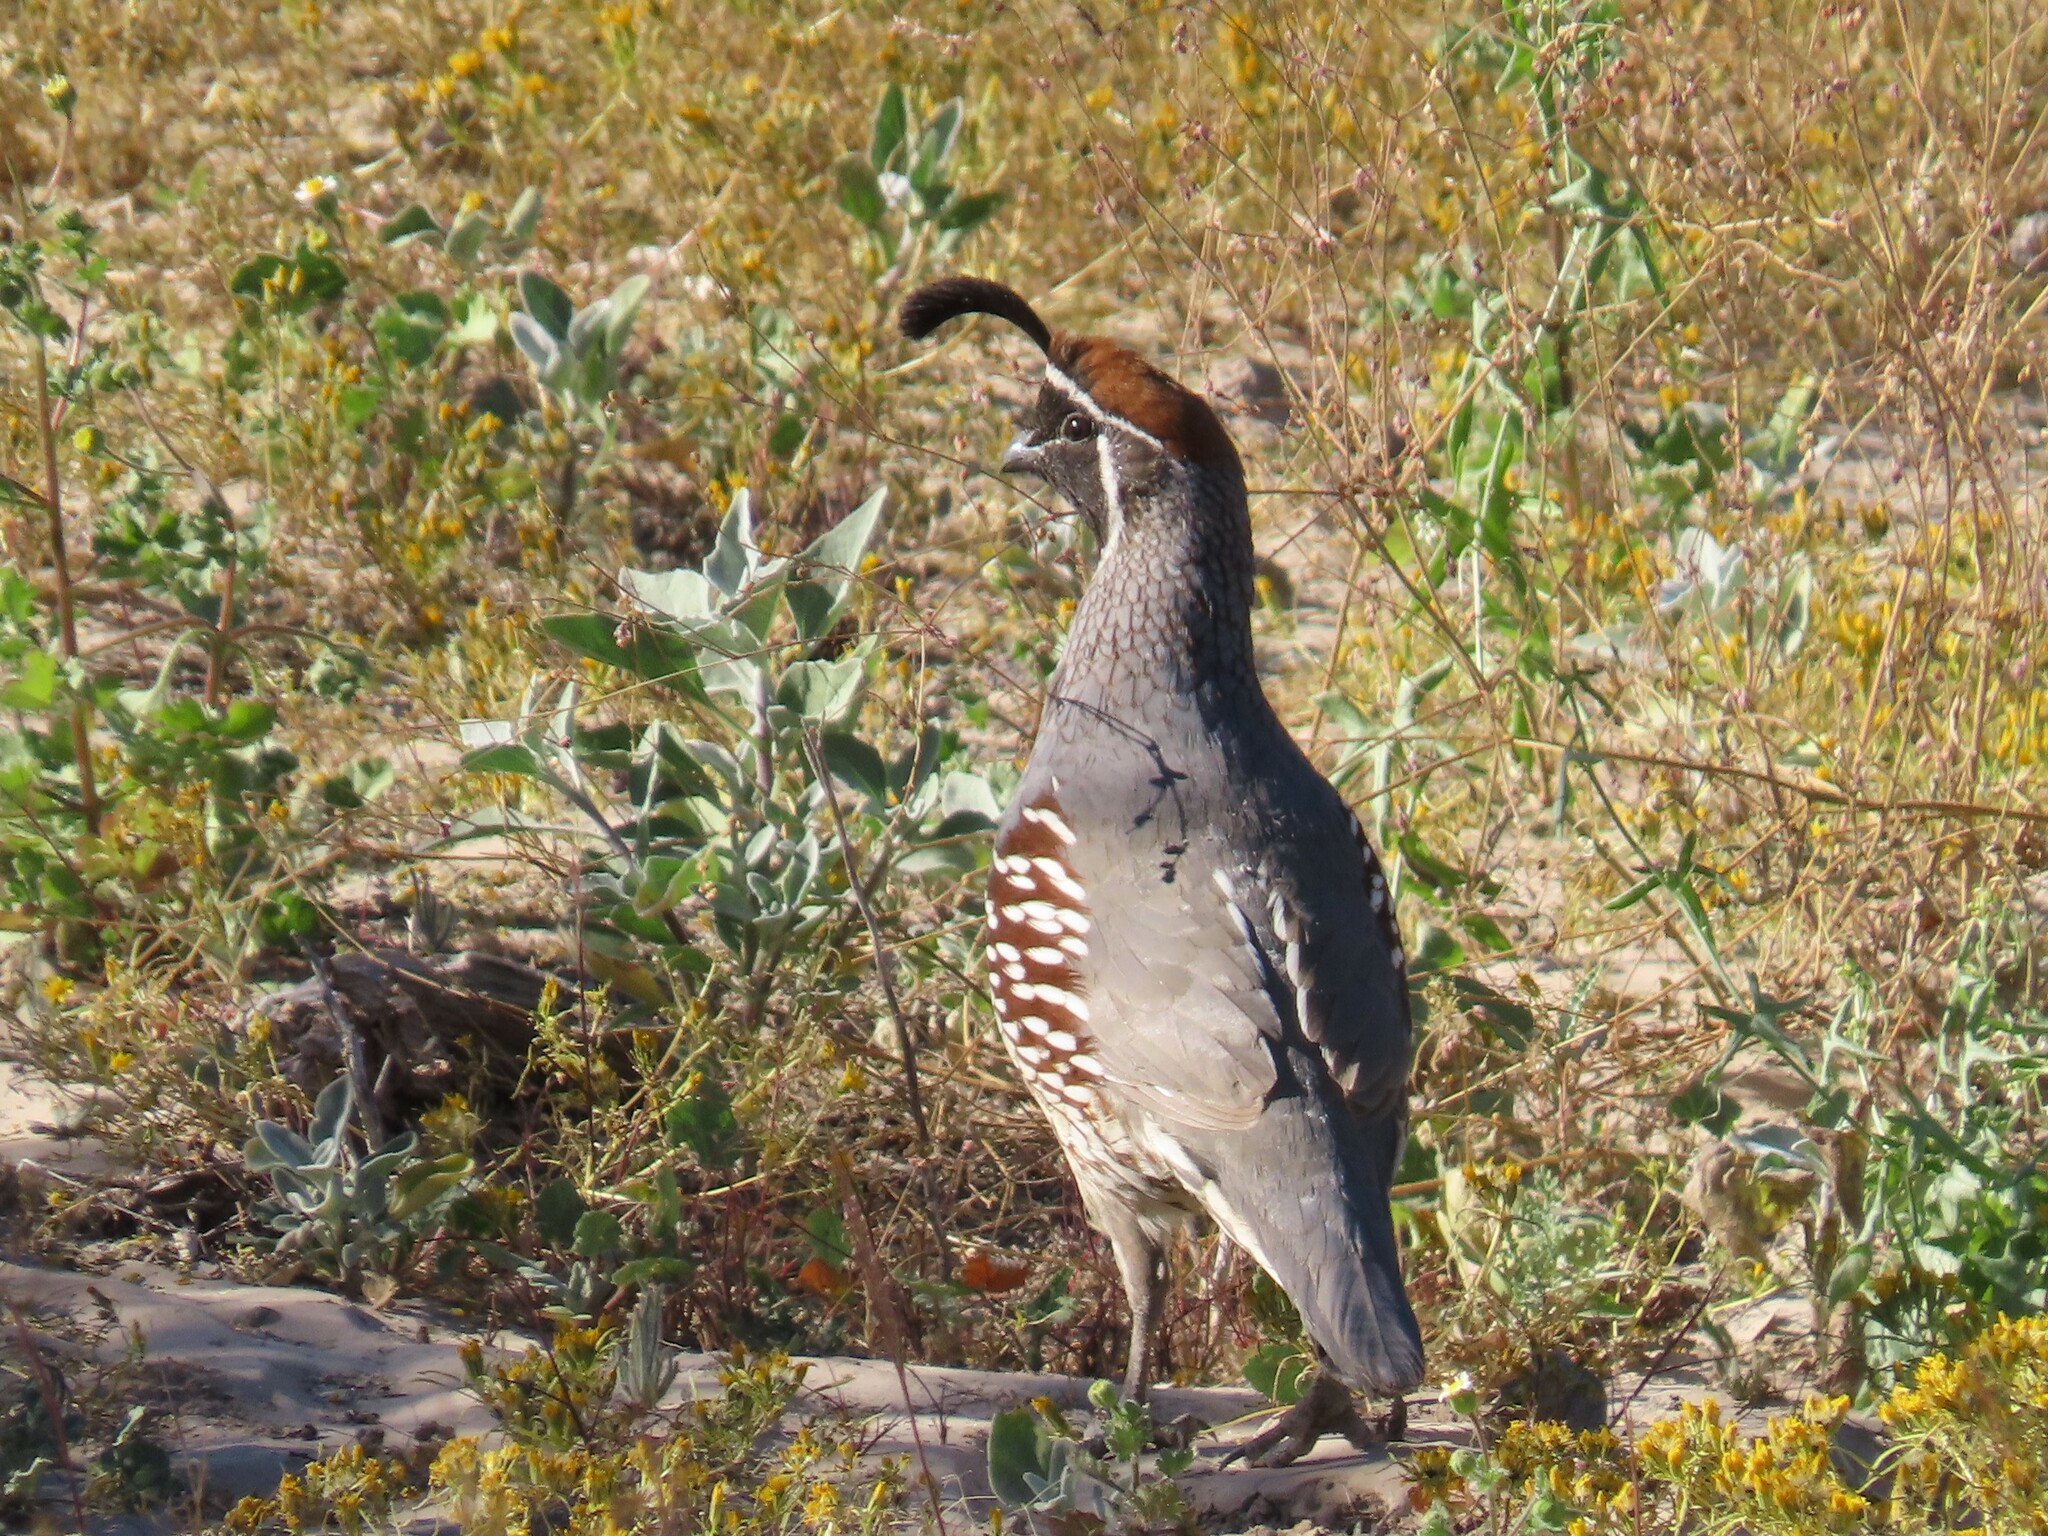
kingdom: Animalia
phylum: Chordata
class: Aves
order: Galliformes
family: Odontophoridae
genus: Callipepla
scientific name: Callipepla gambelii
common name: Gambel's quail
